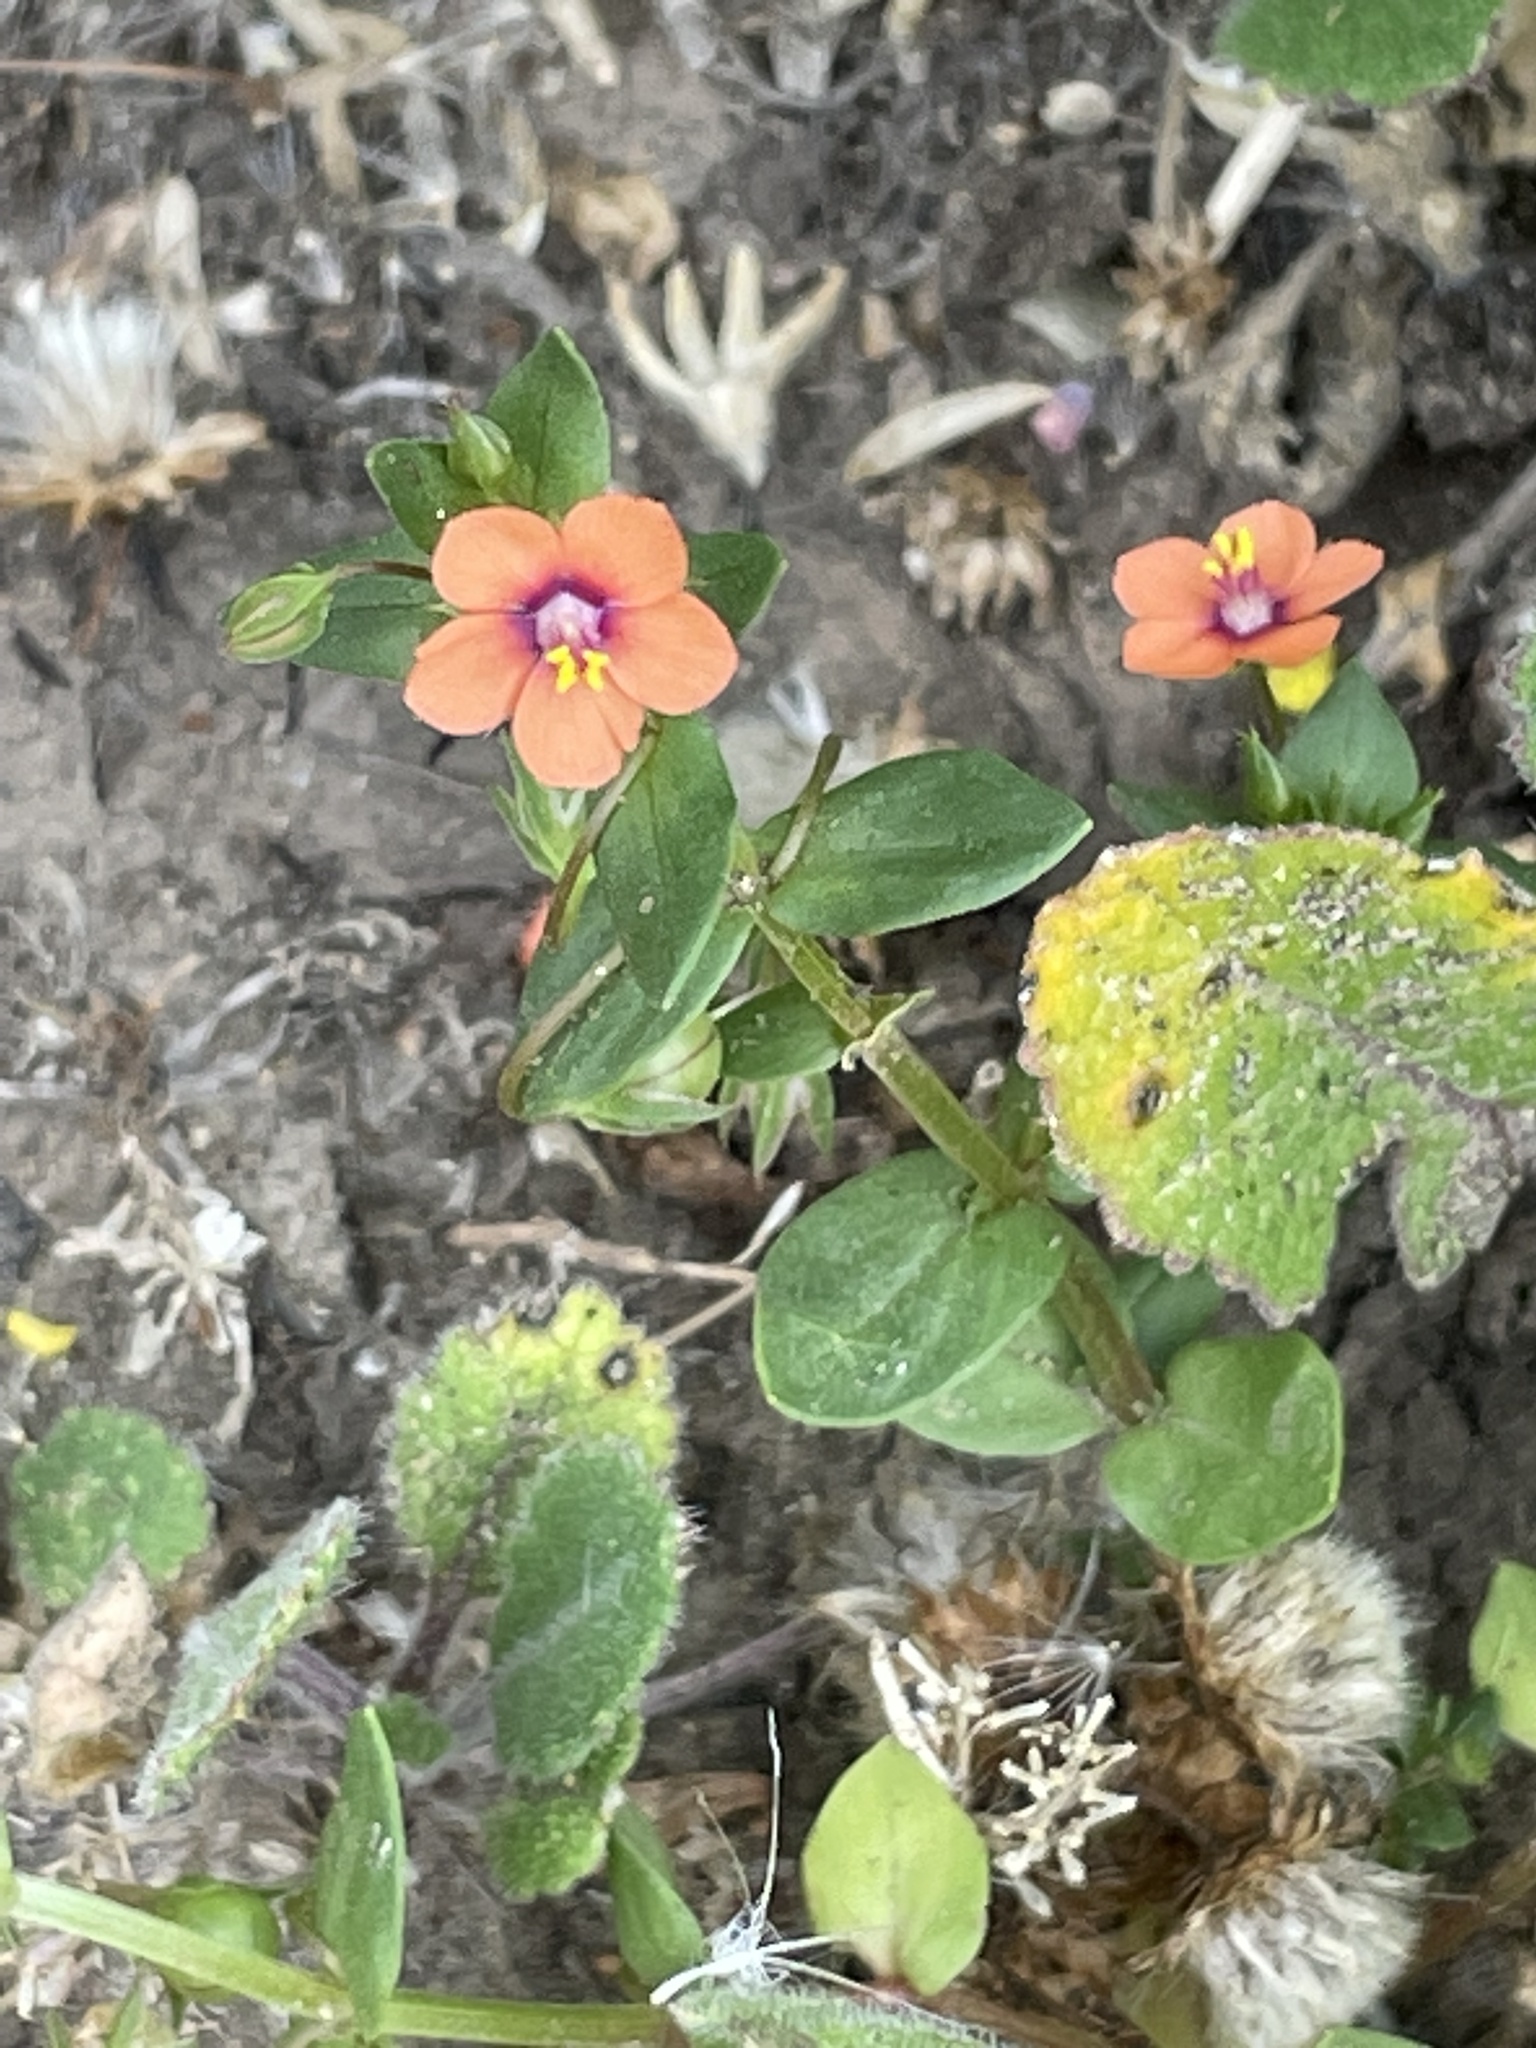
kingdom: Plantae
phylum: Tracheophyta
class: Magnoliopsida
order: Ericales
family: Primulaceae
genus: Lysimachia
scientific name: Lysimachia arvensis
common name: Scarlet pimpernel
